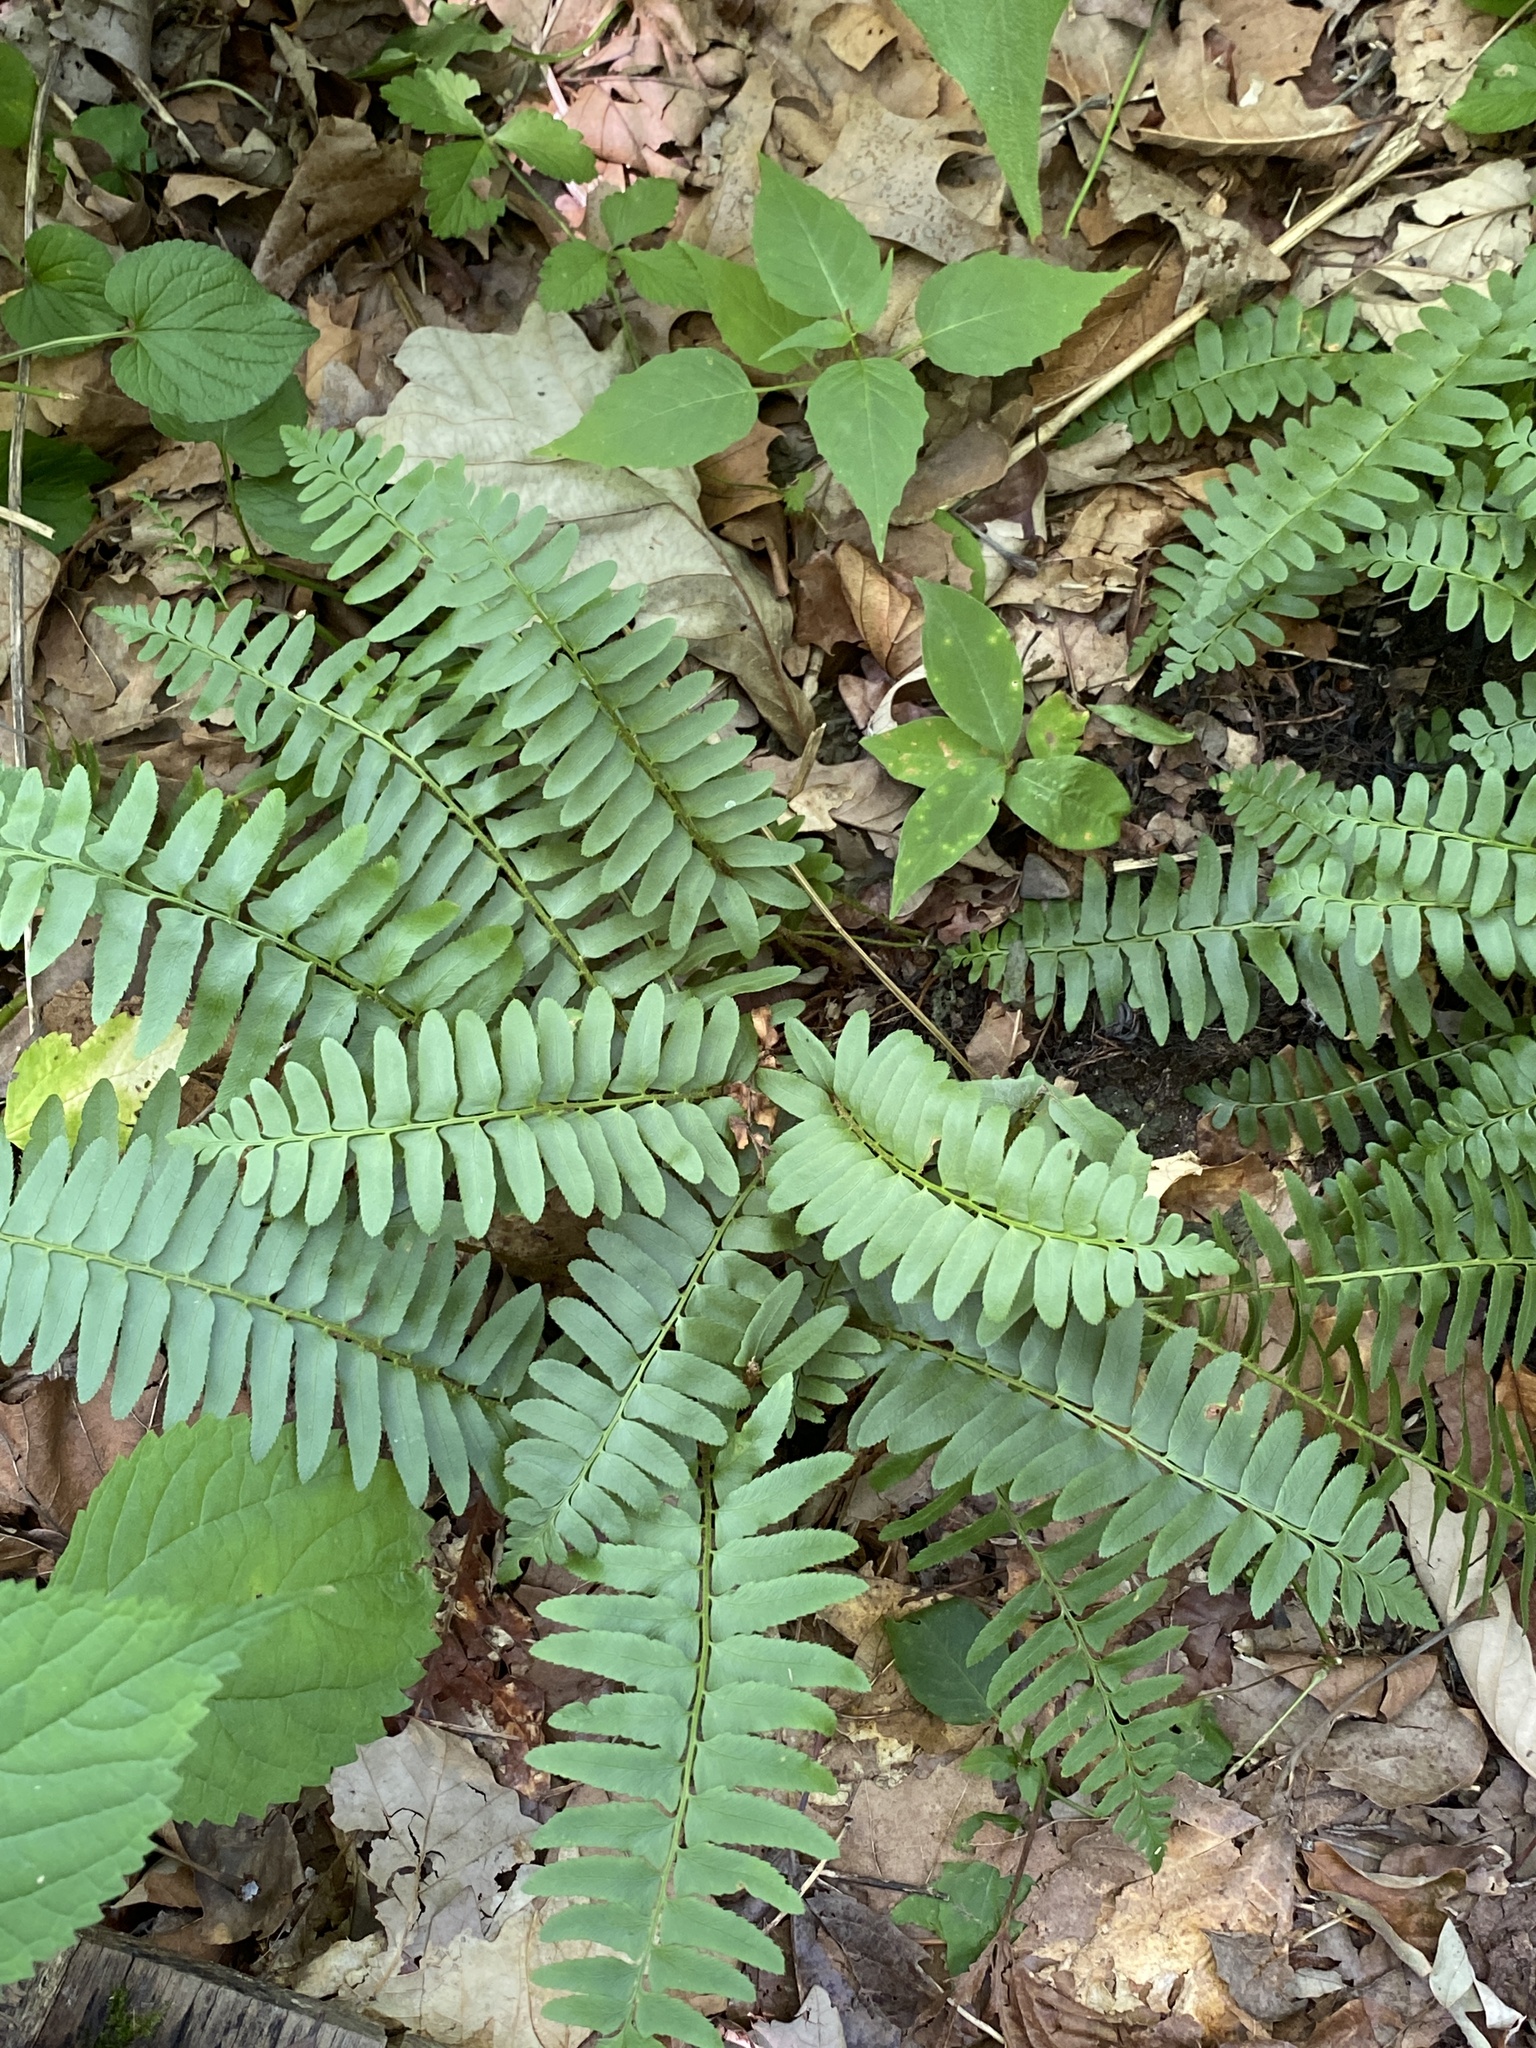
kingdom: Plantae
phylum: Tracheophyta
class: Polypodiopsida
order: Polypodiales
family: Dryopteridaceae
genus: Polystichum
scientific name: Polystichum acrostichoides
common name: Christmas fern
